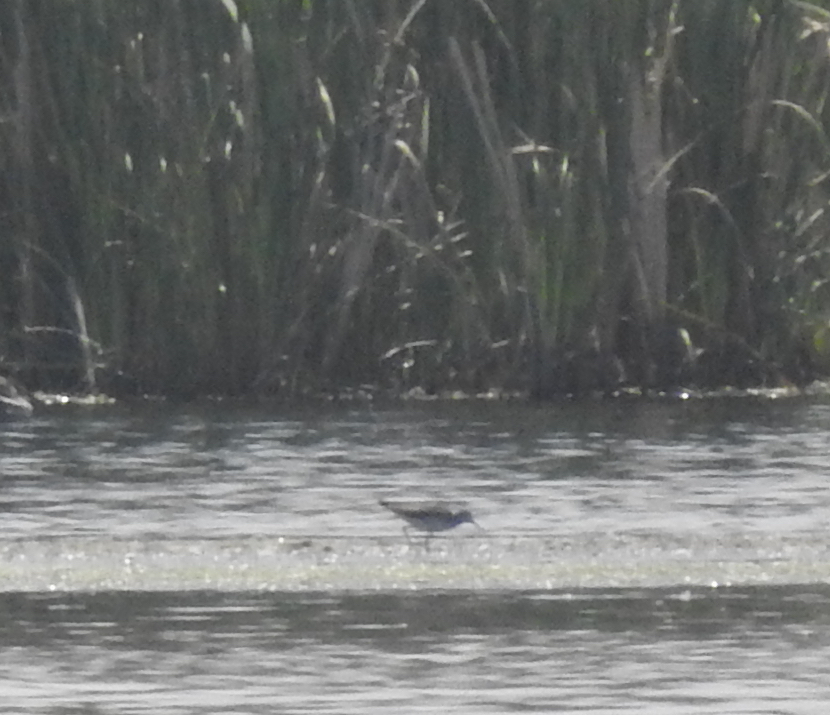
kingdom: Animalia
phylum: Chordata
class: Aves
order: Charadriiformes
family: Scolopacidae
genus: Tringa
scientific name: Tringa flavipes
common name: Lesser yellowlegs
